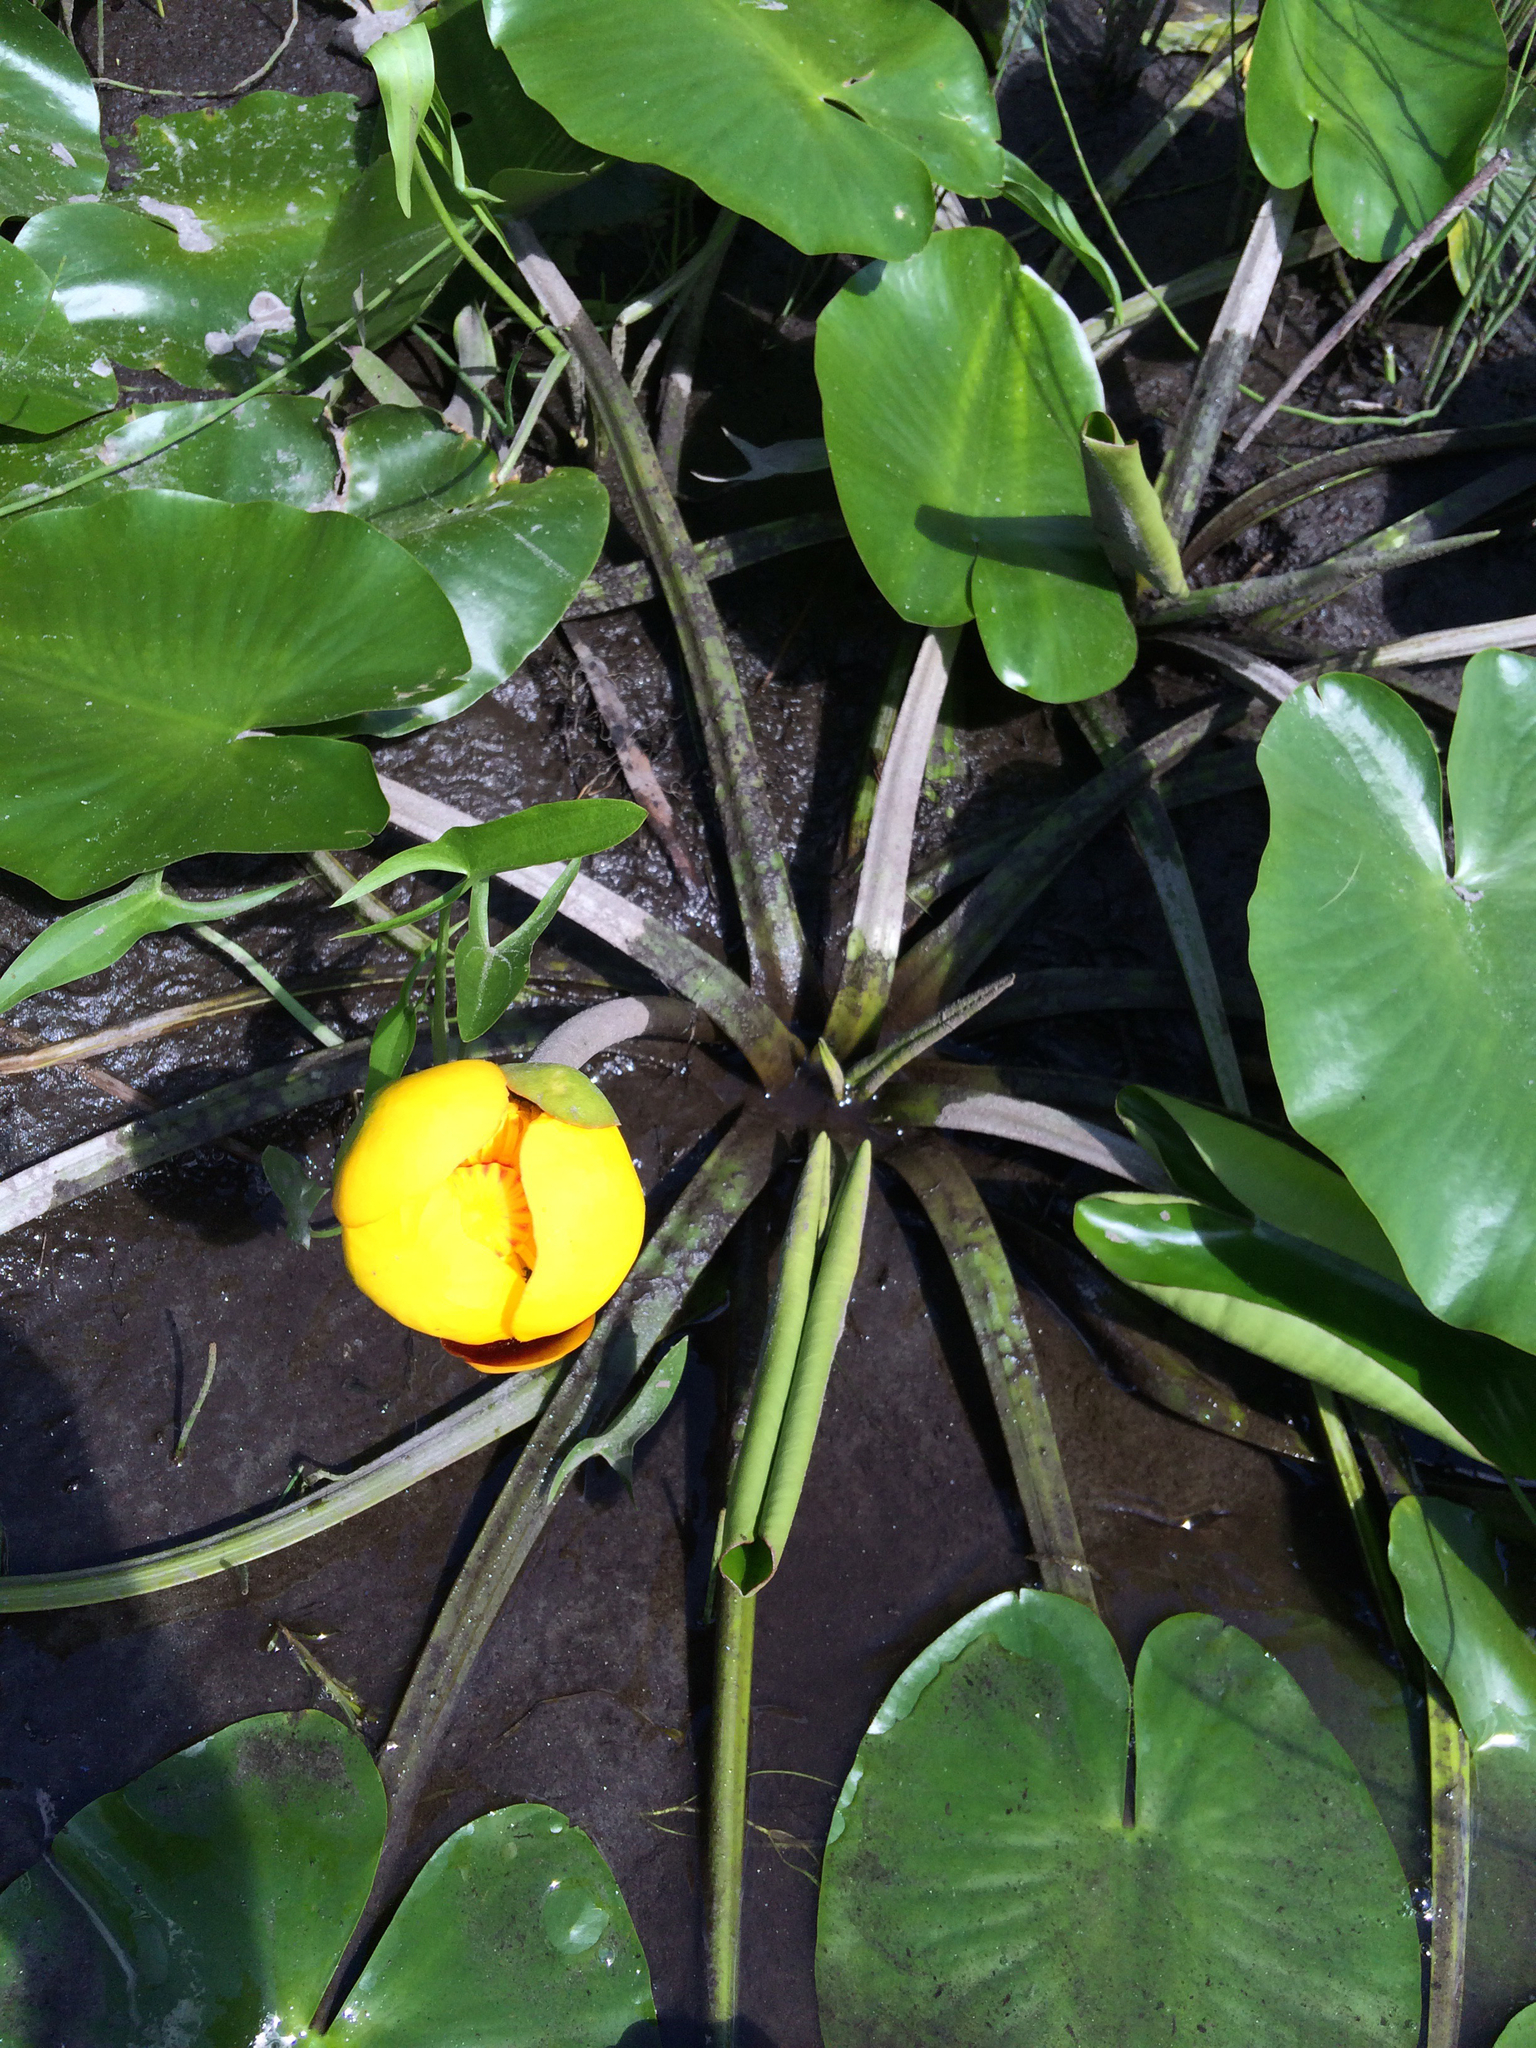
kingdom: Plantae
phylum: Tracheophyta
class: Magnoliopsida
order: Nymphaeales
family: Nymphaeaceae
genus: Nuphar
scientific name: Nuphar variegata
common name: Beaver-root
